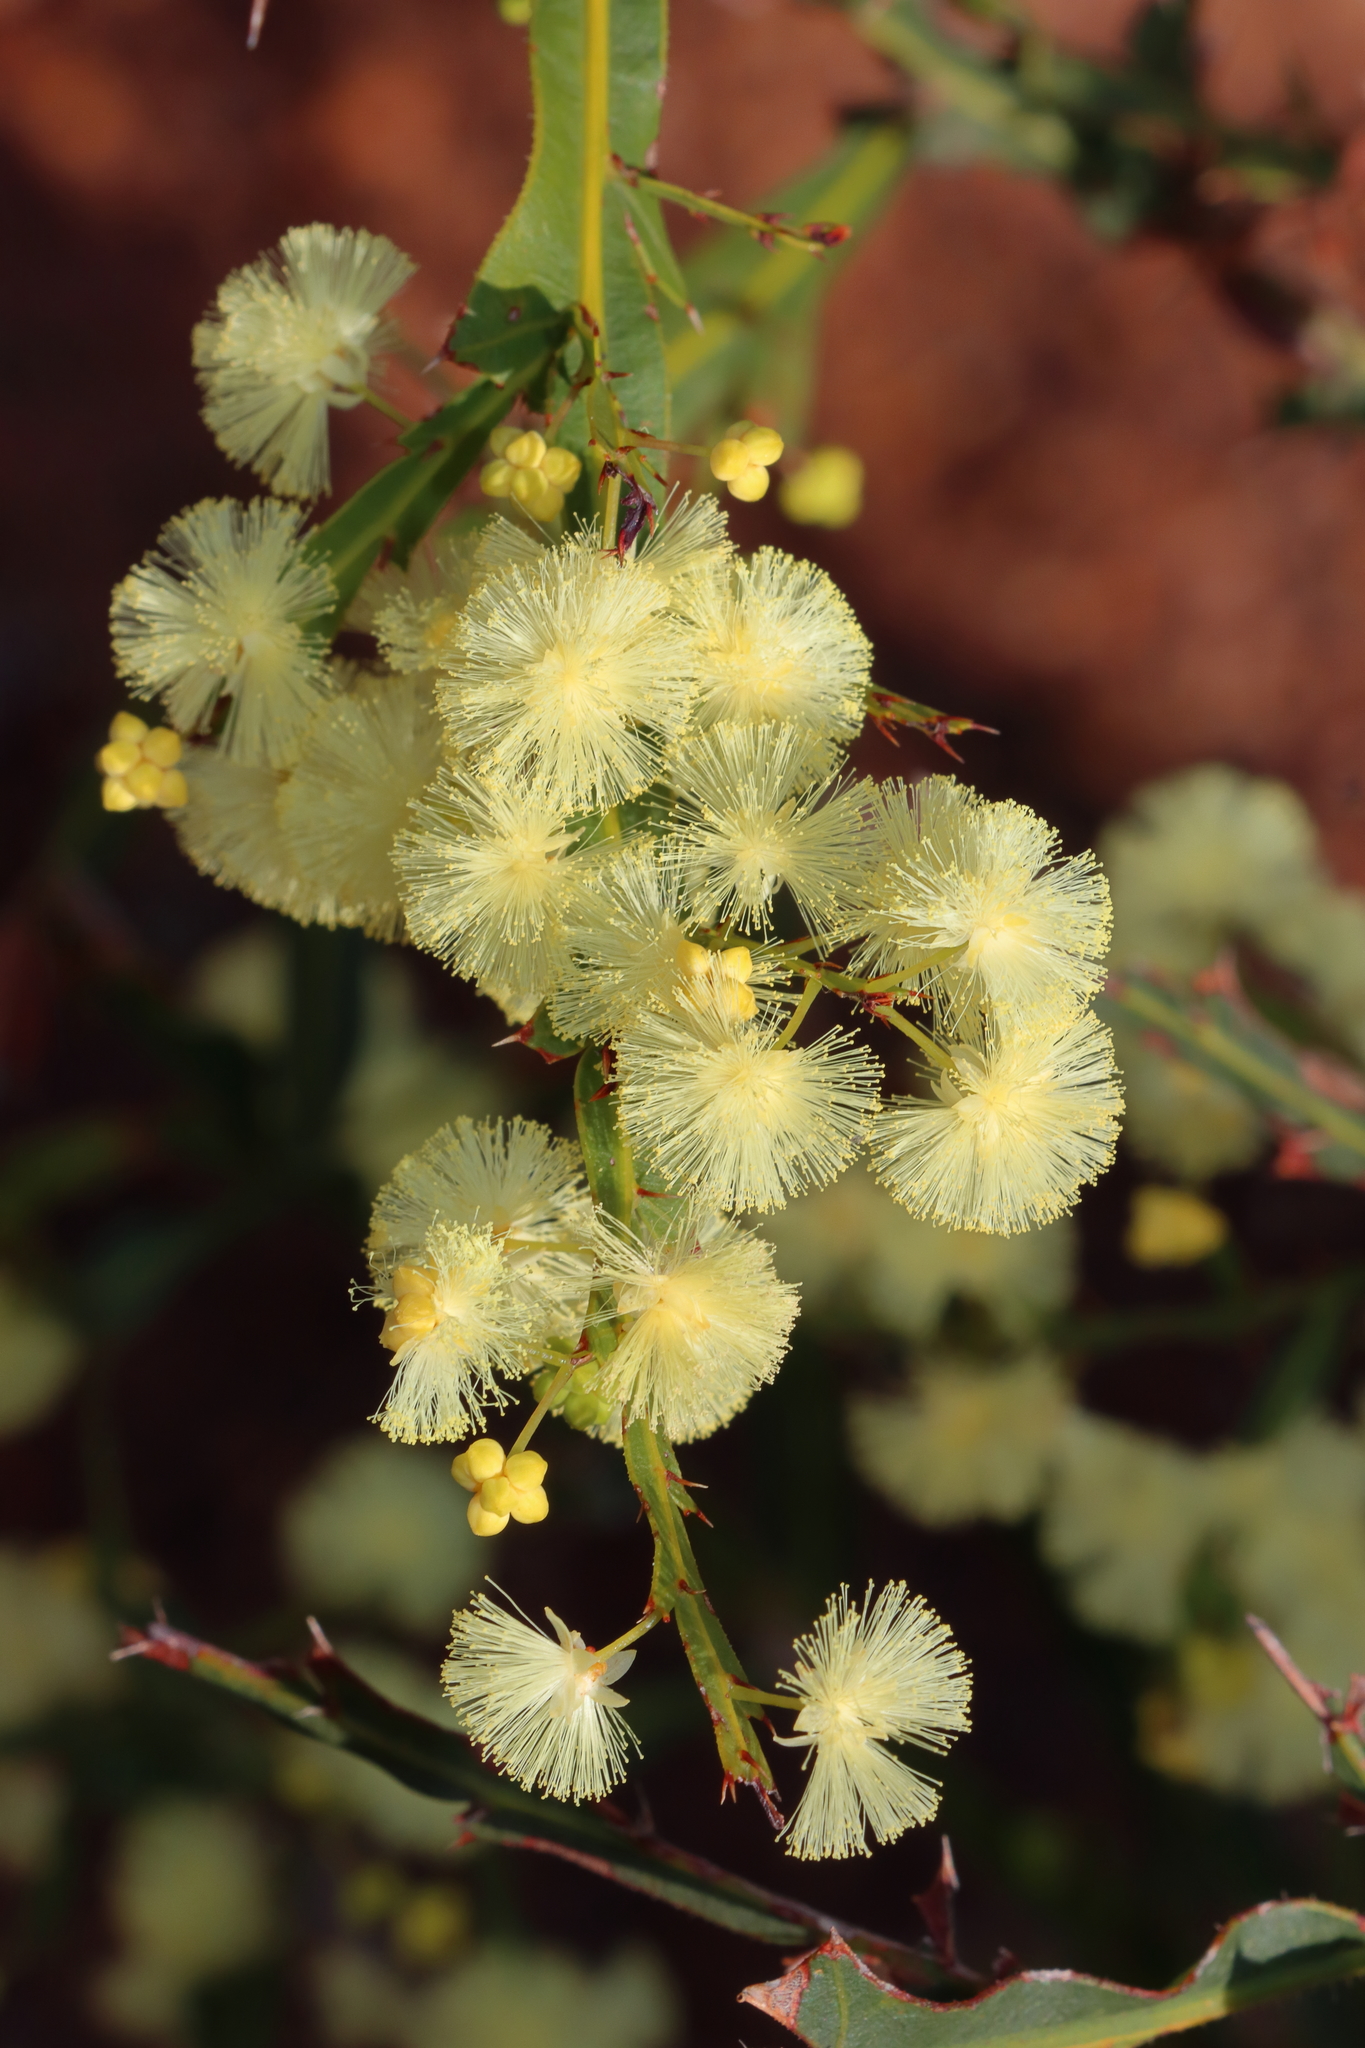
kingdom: Plantae
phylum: Tracheophyta
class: Magnoliopsida
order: Fabales
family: Fabaceae
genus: Acacia
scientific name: Acacia alata
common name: Winged wattle
